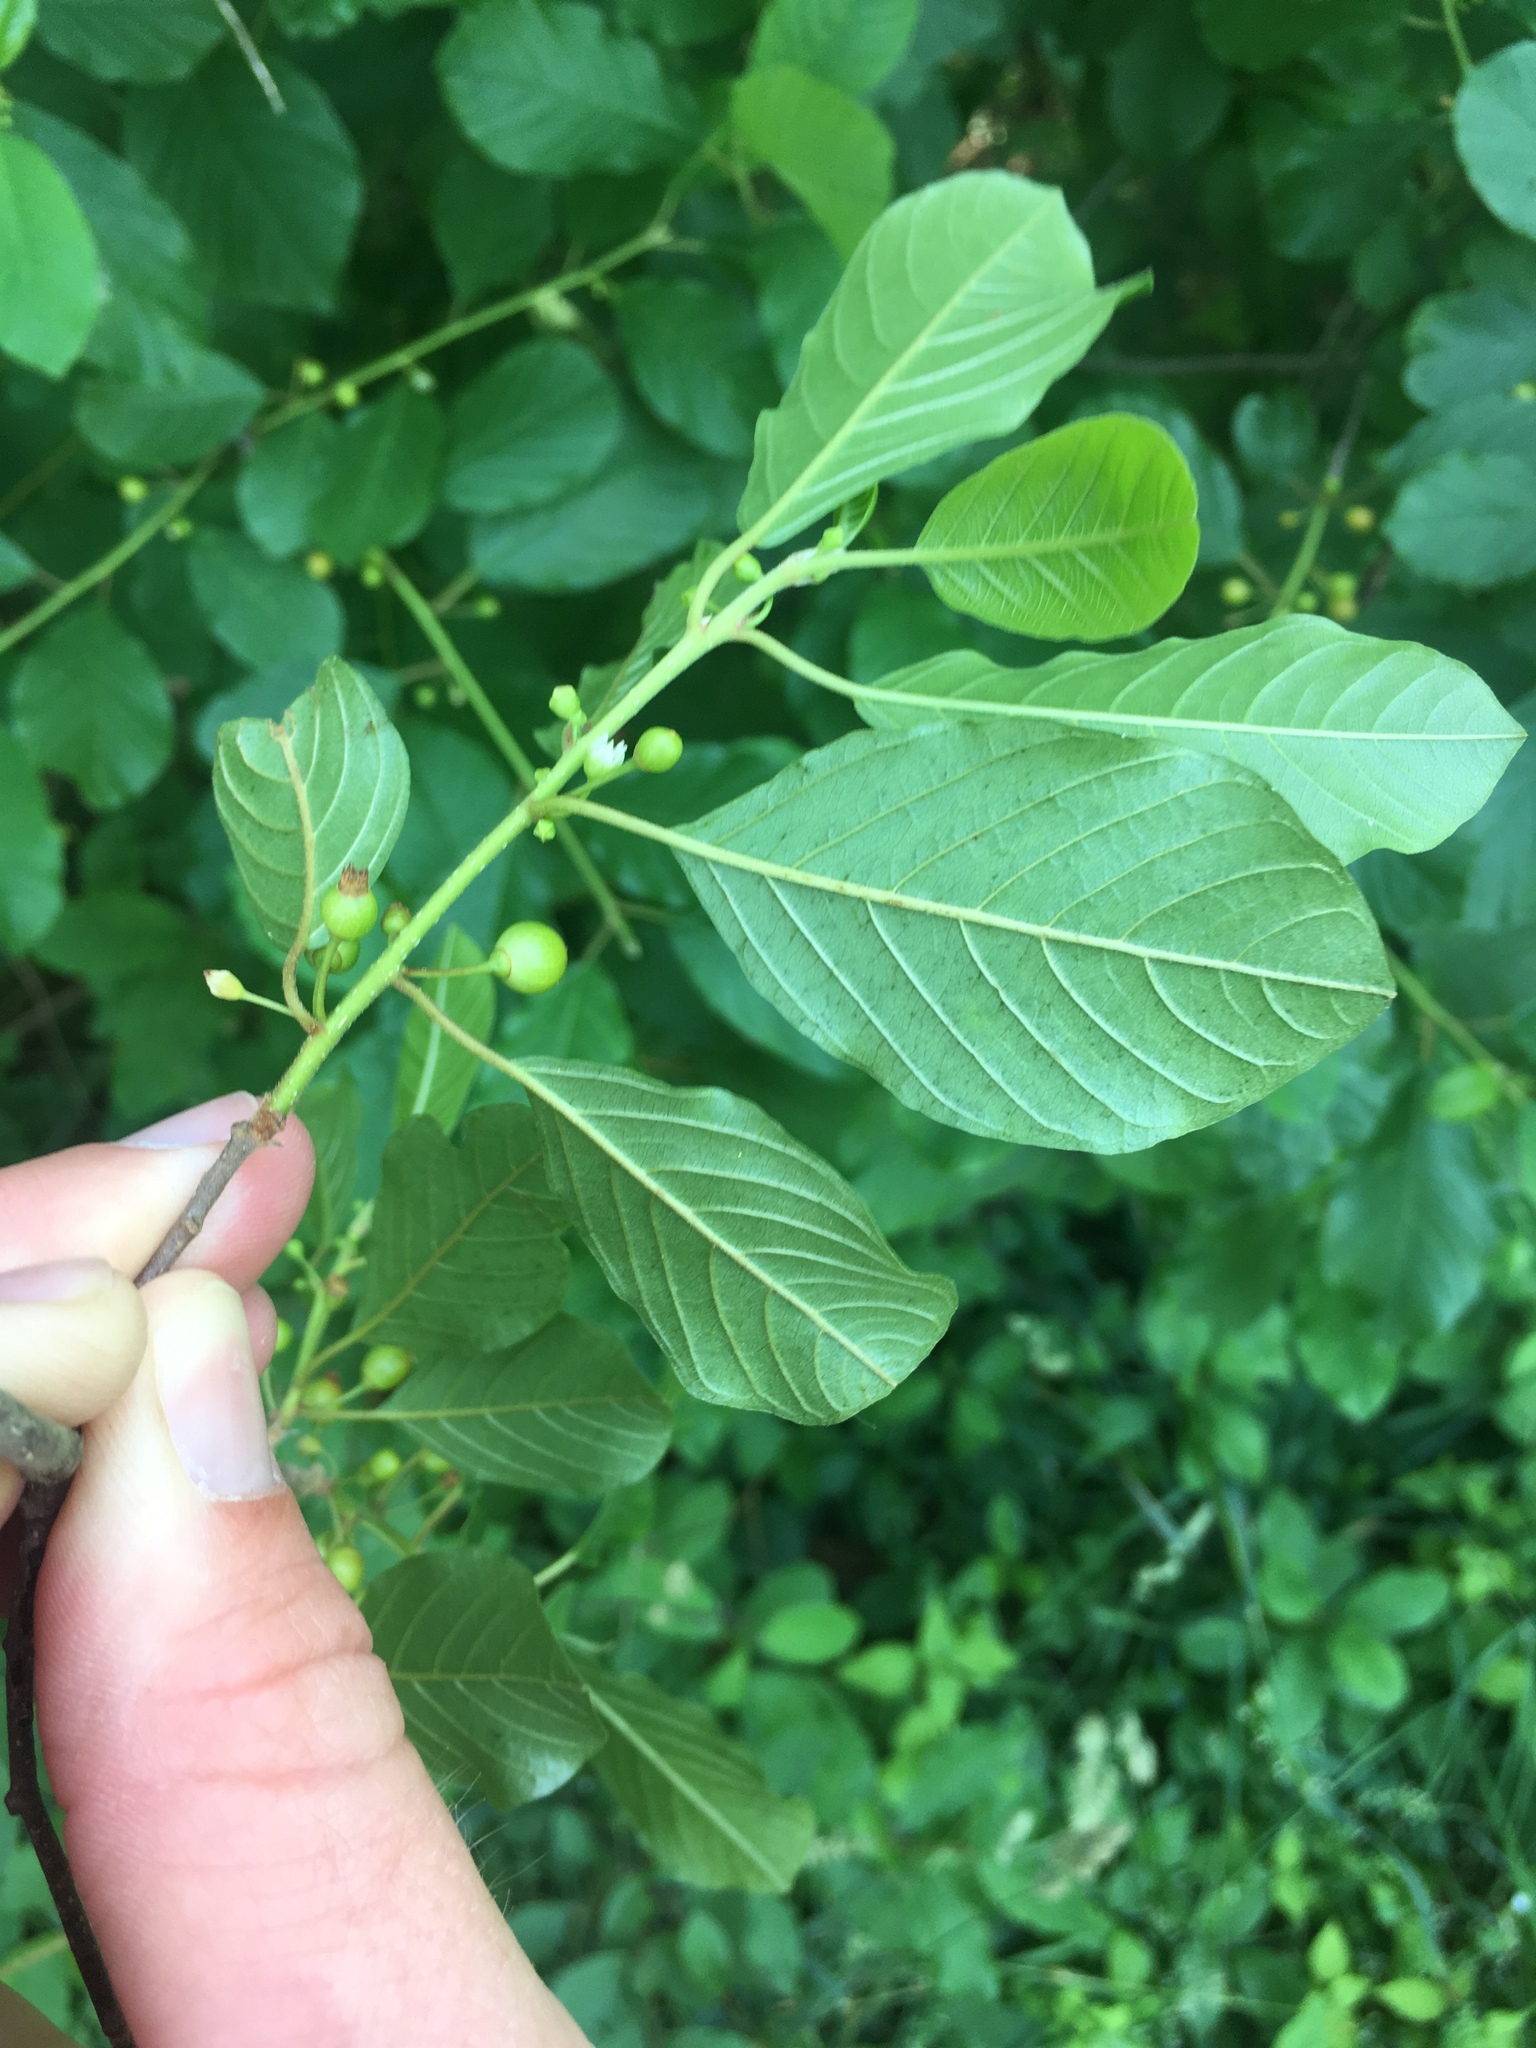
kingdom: Plantae
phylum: Tracheophyta
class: Magnoliopsida
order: Rosales
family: Rhamnaceae
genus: Frangula
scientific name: Frangula alnus
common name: Alder buckthorn
